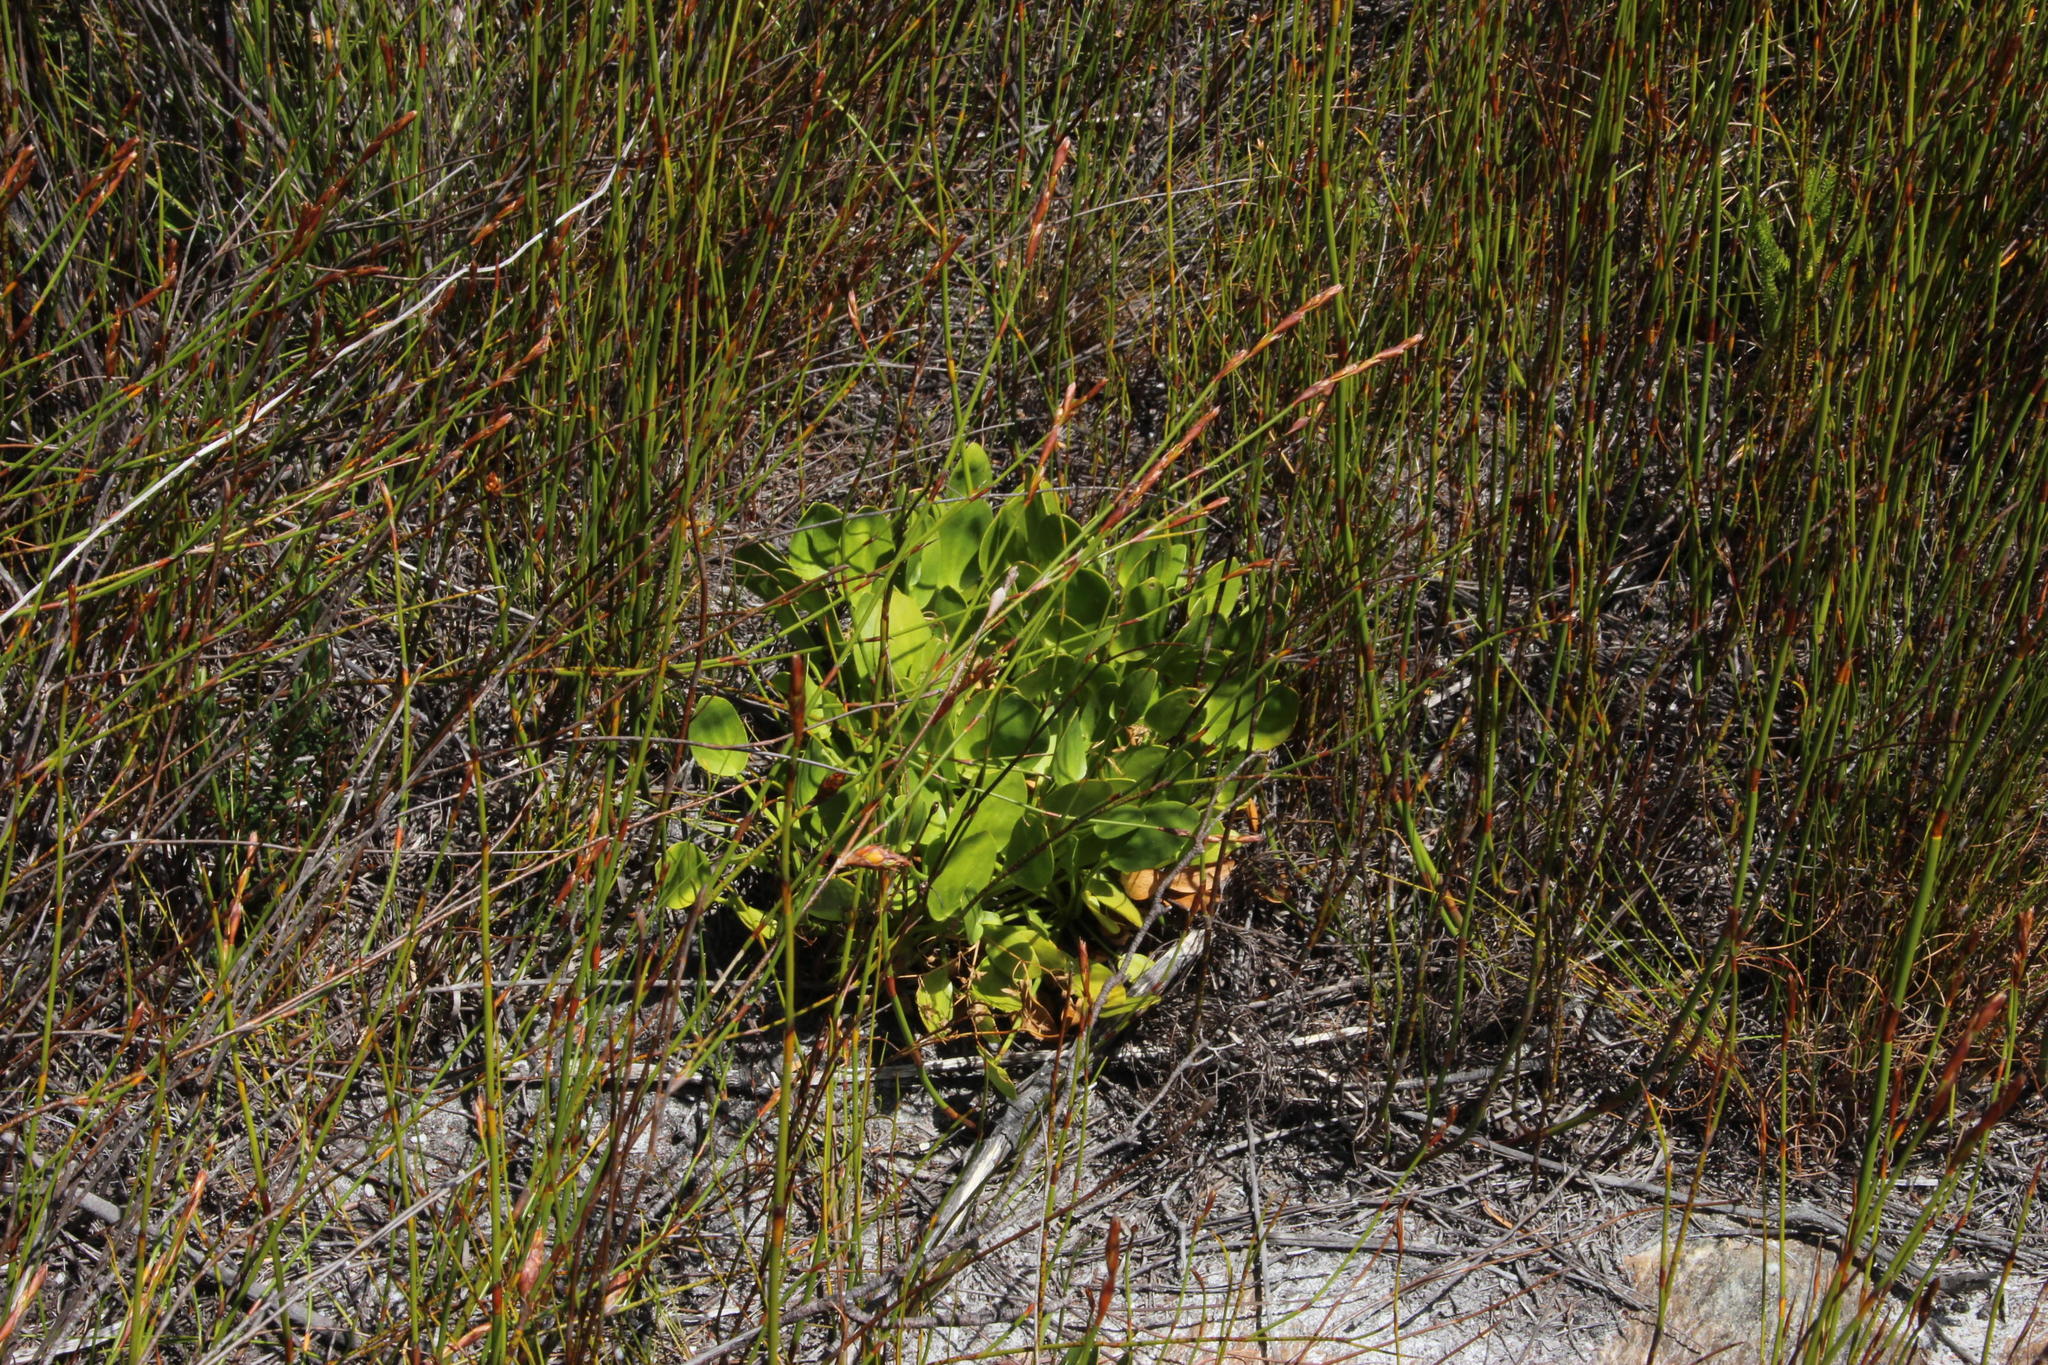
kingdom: Plantae
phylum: Tracheophyta
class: Magnoliopsida
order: Asterales
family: Menyanthaceae
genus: Villarsia
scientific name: Villarsia manningiana
